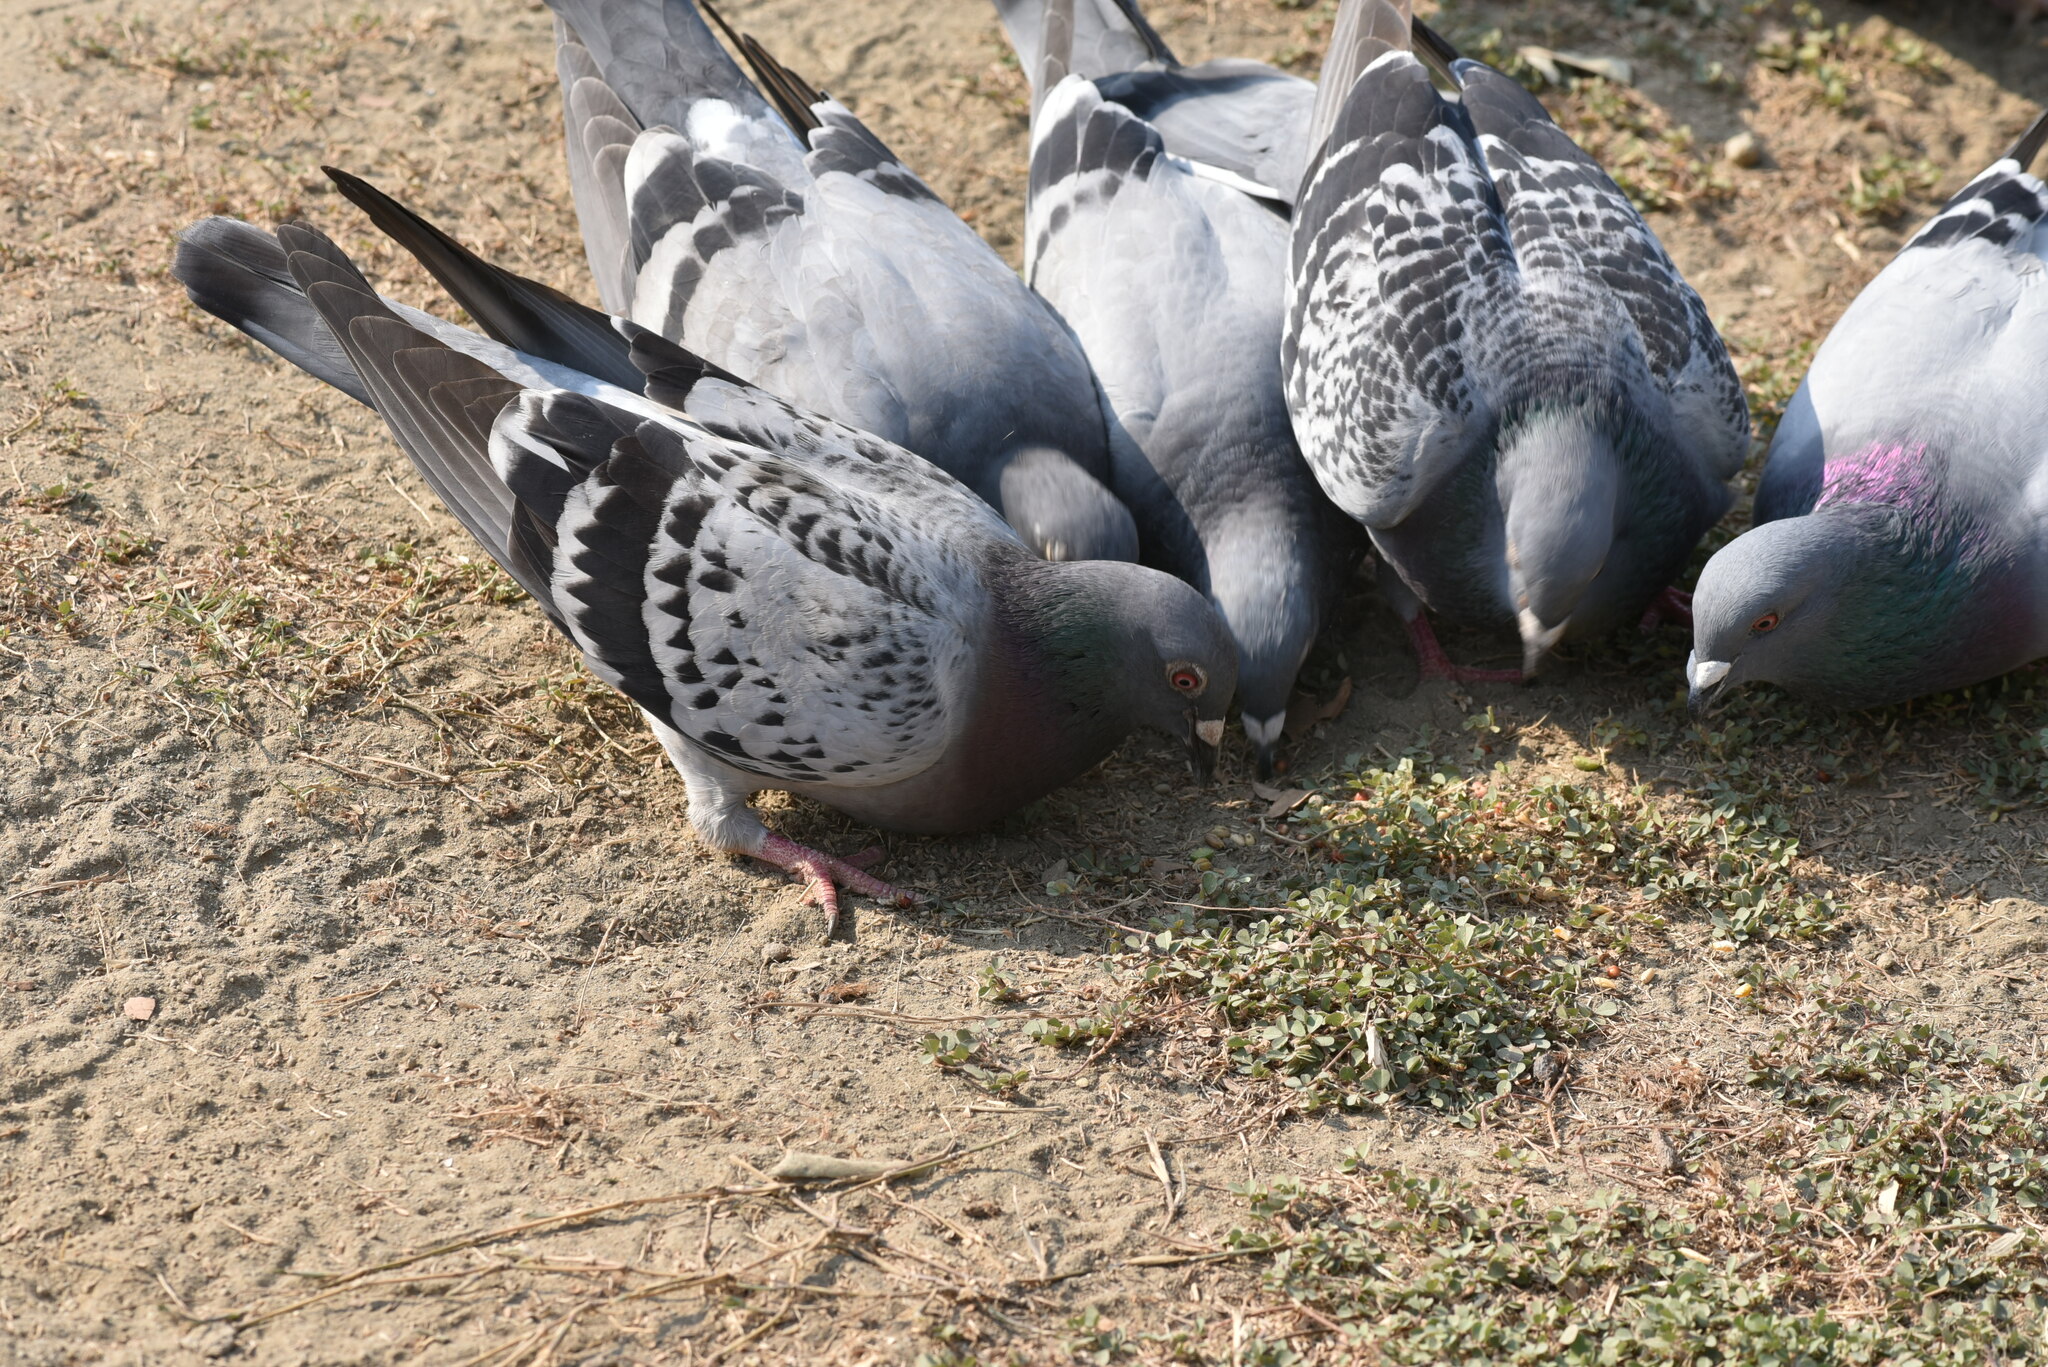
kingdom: Animalia
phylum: Chordata
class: Aves
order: Columbiformes
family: Columbidae
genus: Columba
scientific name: Columba livia
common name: Rock pigeon
